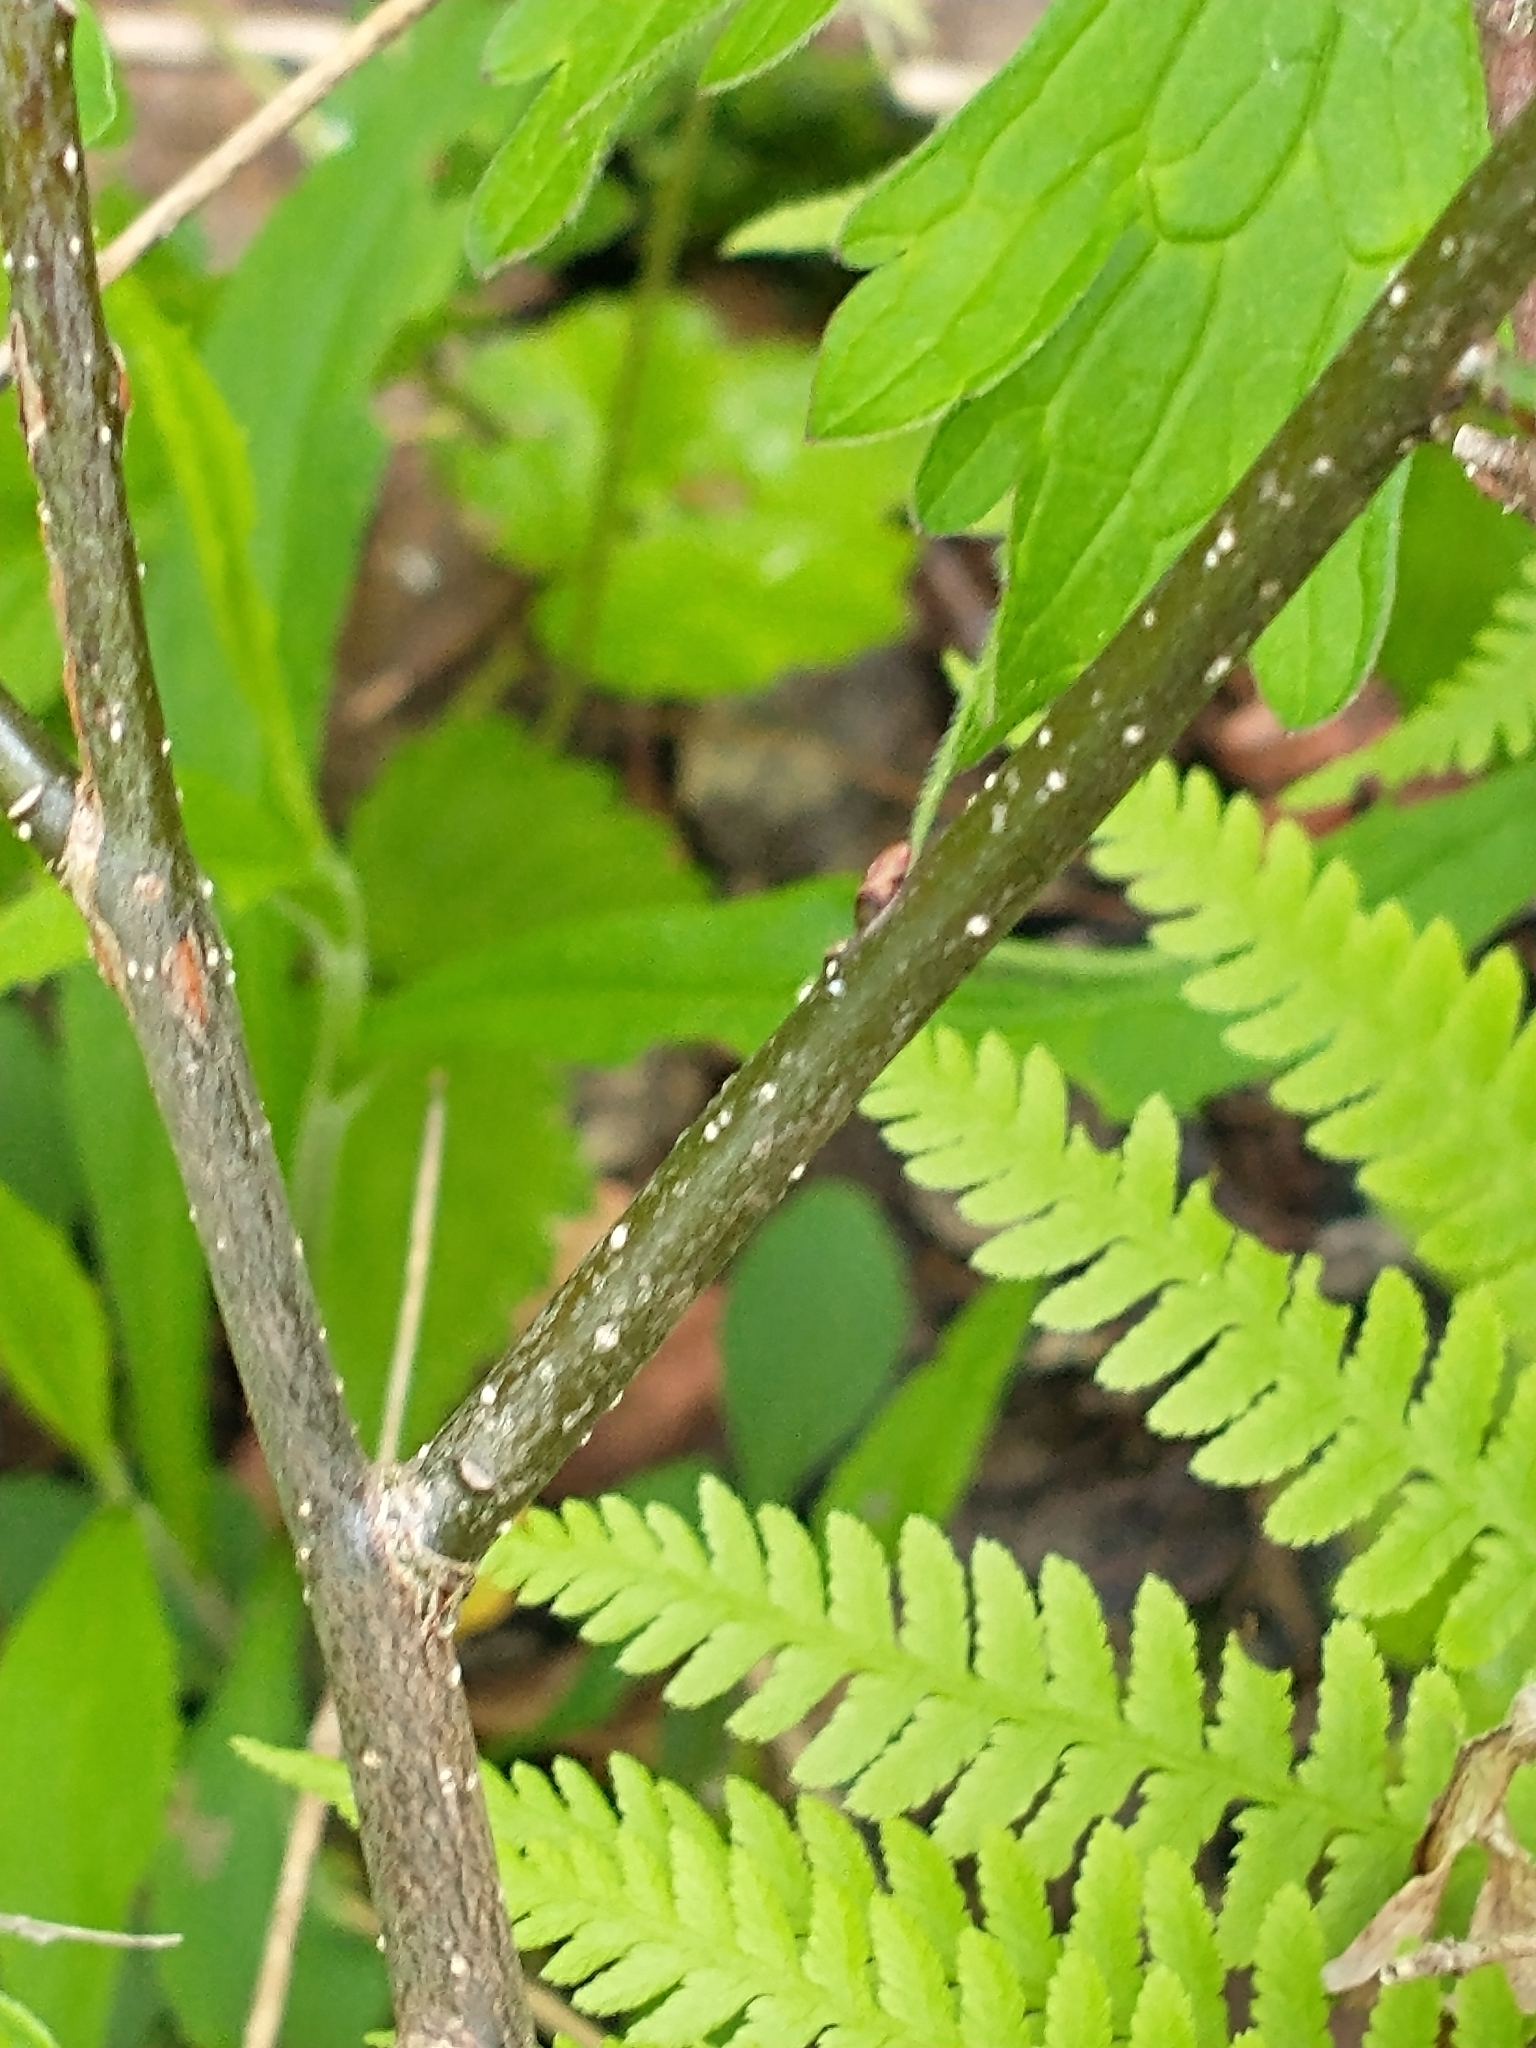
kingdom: Plantae
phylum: Tracheophyta
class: Magnoliopsida
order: Laurales
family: Lauraceae
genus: Lindera
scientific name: Lindera benzoin
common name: Spicebush
